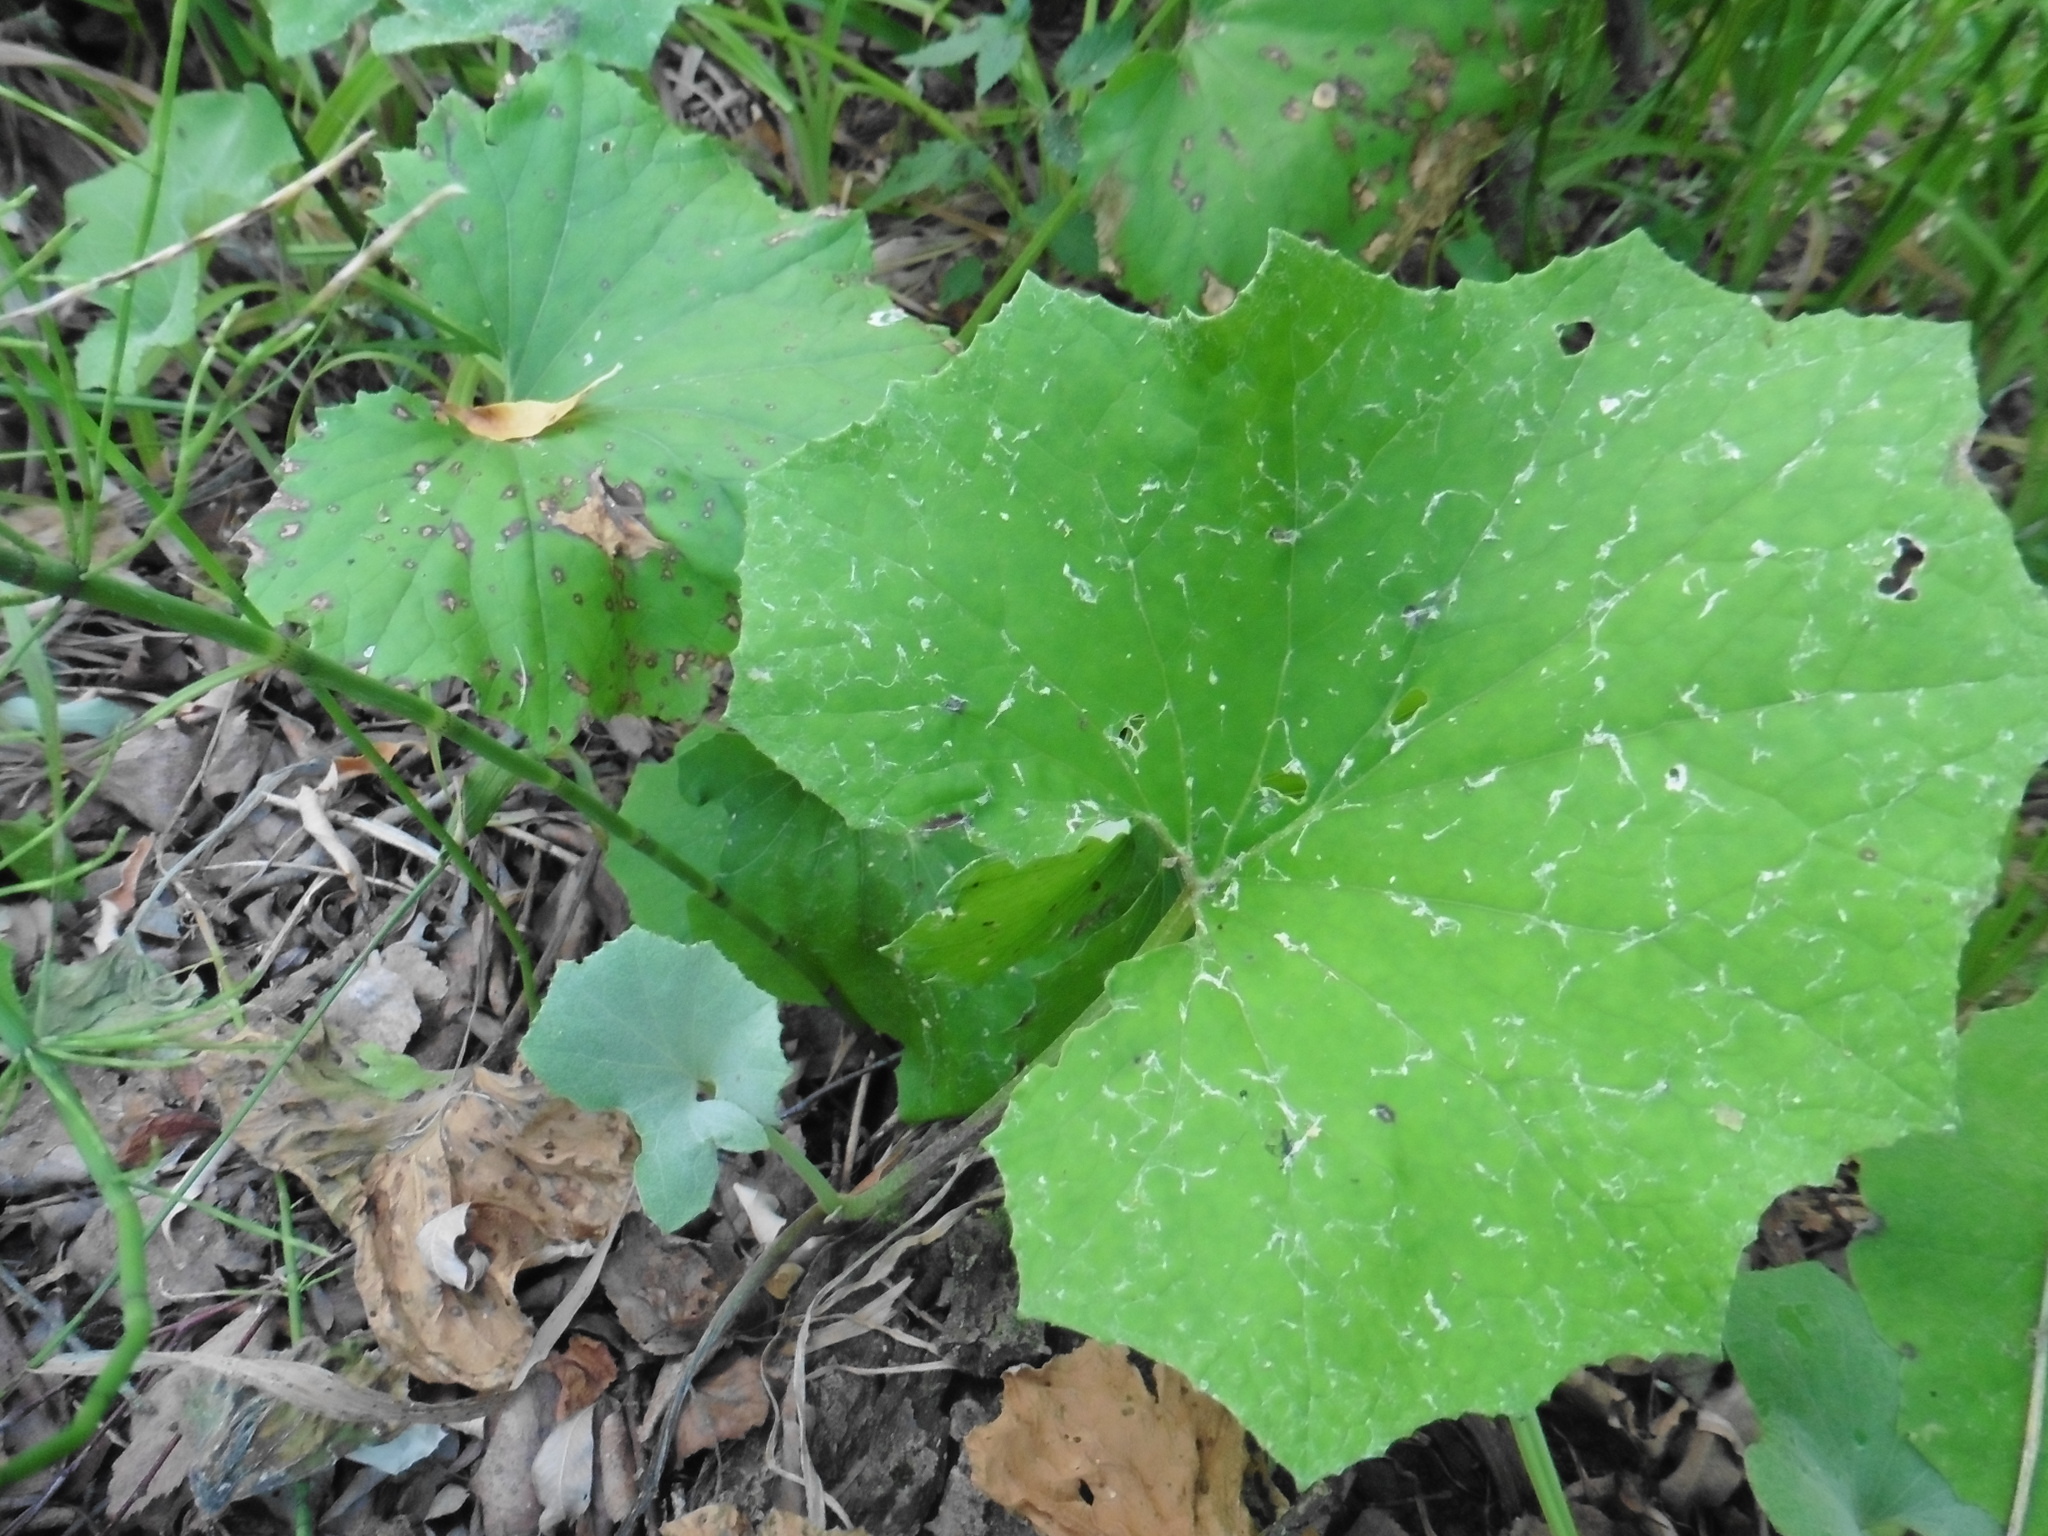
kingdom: Plantae
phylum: Tracheophyta
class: Magnoliopsida
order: Asterales
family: Asteraceae
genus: Tussilago
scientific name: Tussilago farfara
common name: Coltsfoot
